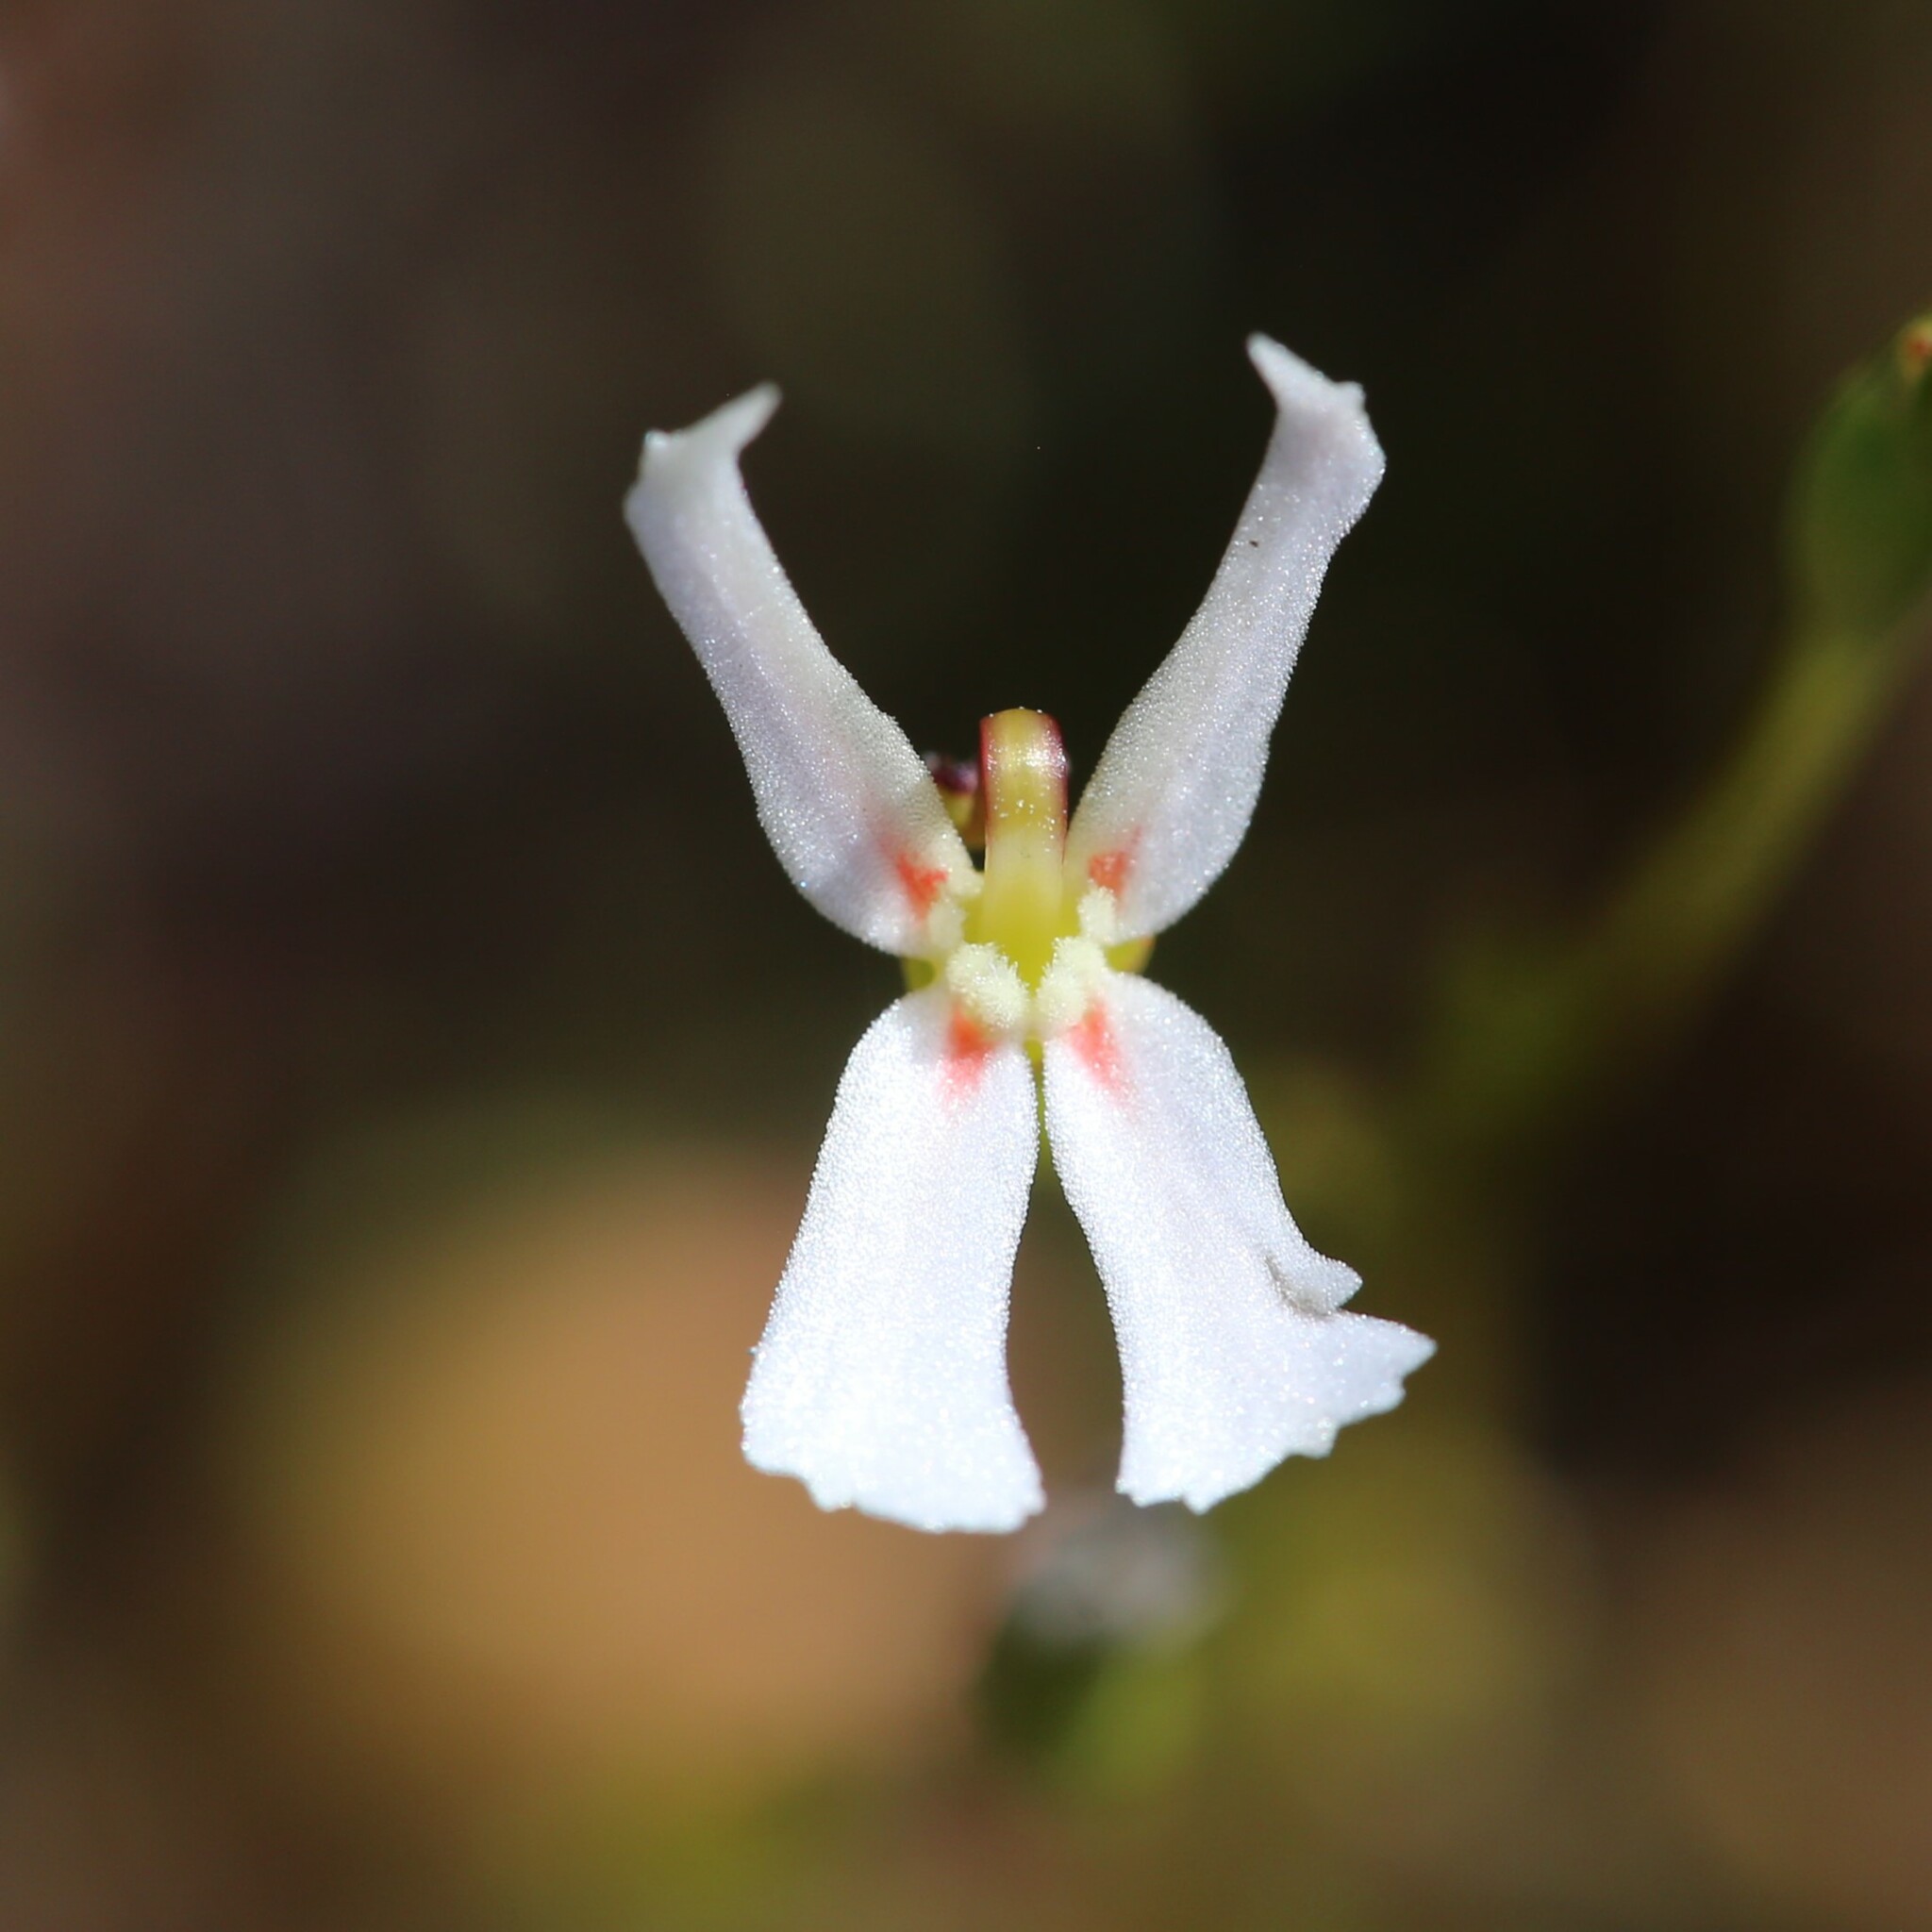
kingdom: Plantae
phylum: Tracheophyta
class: Magnoliopsida
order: Asterales
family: Stylidiaceae
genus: Stylidium
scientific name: Stylidium emarginatum
